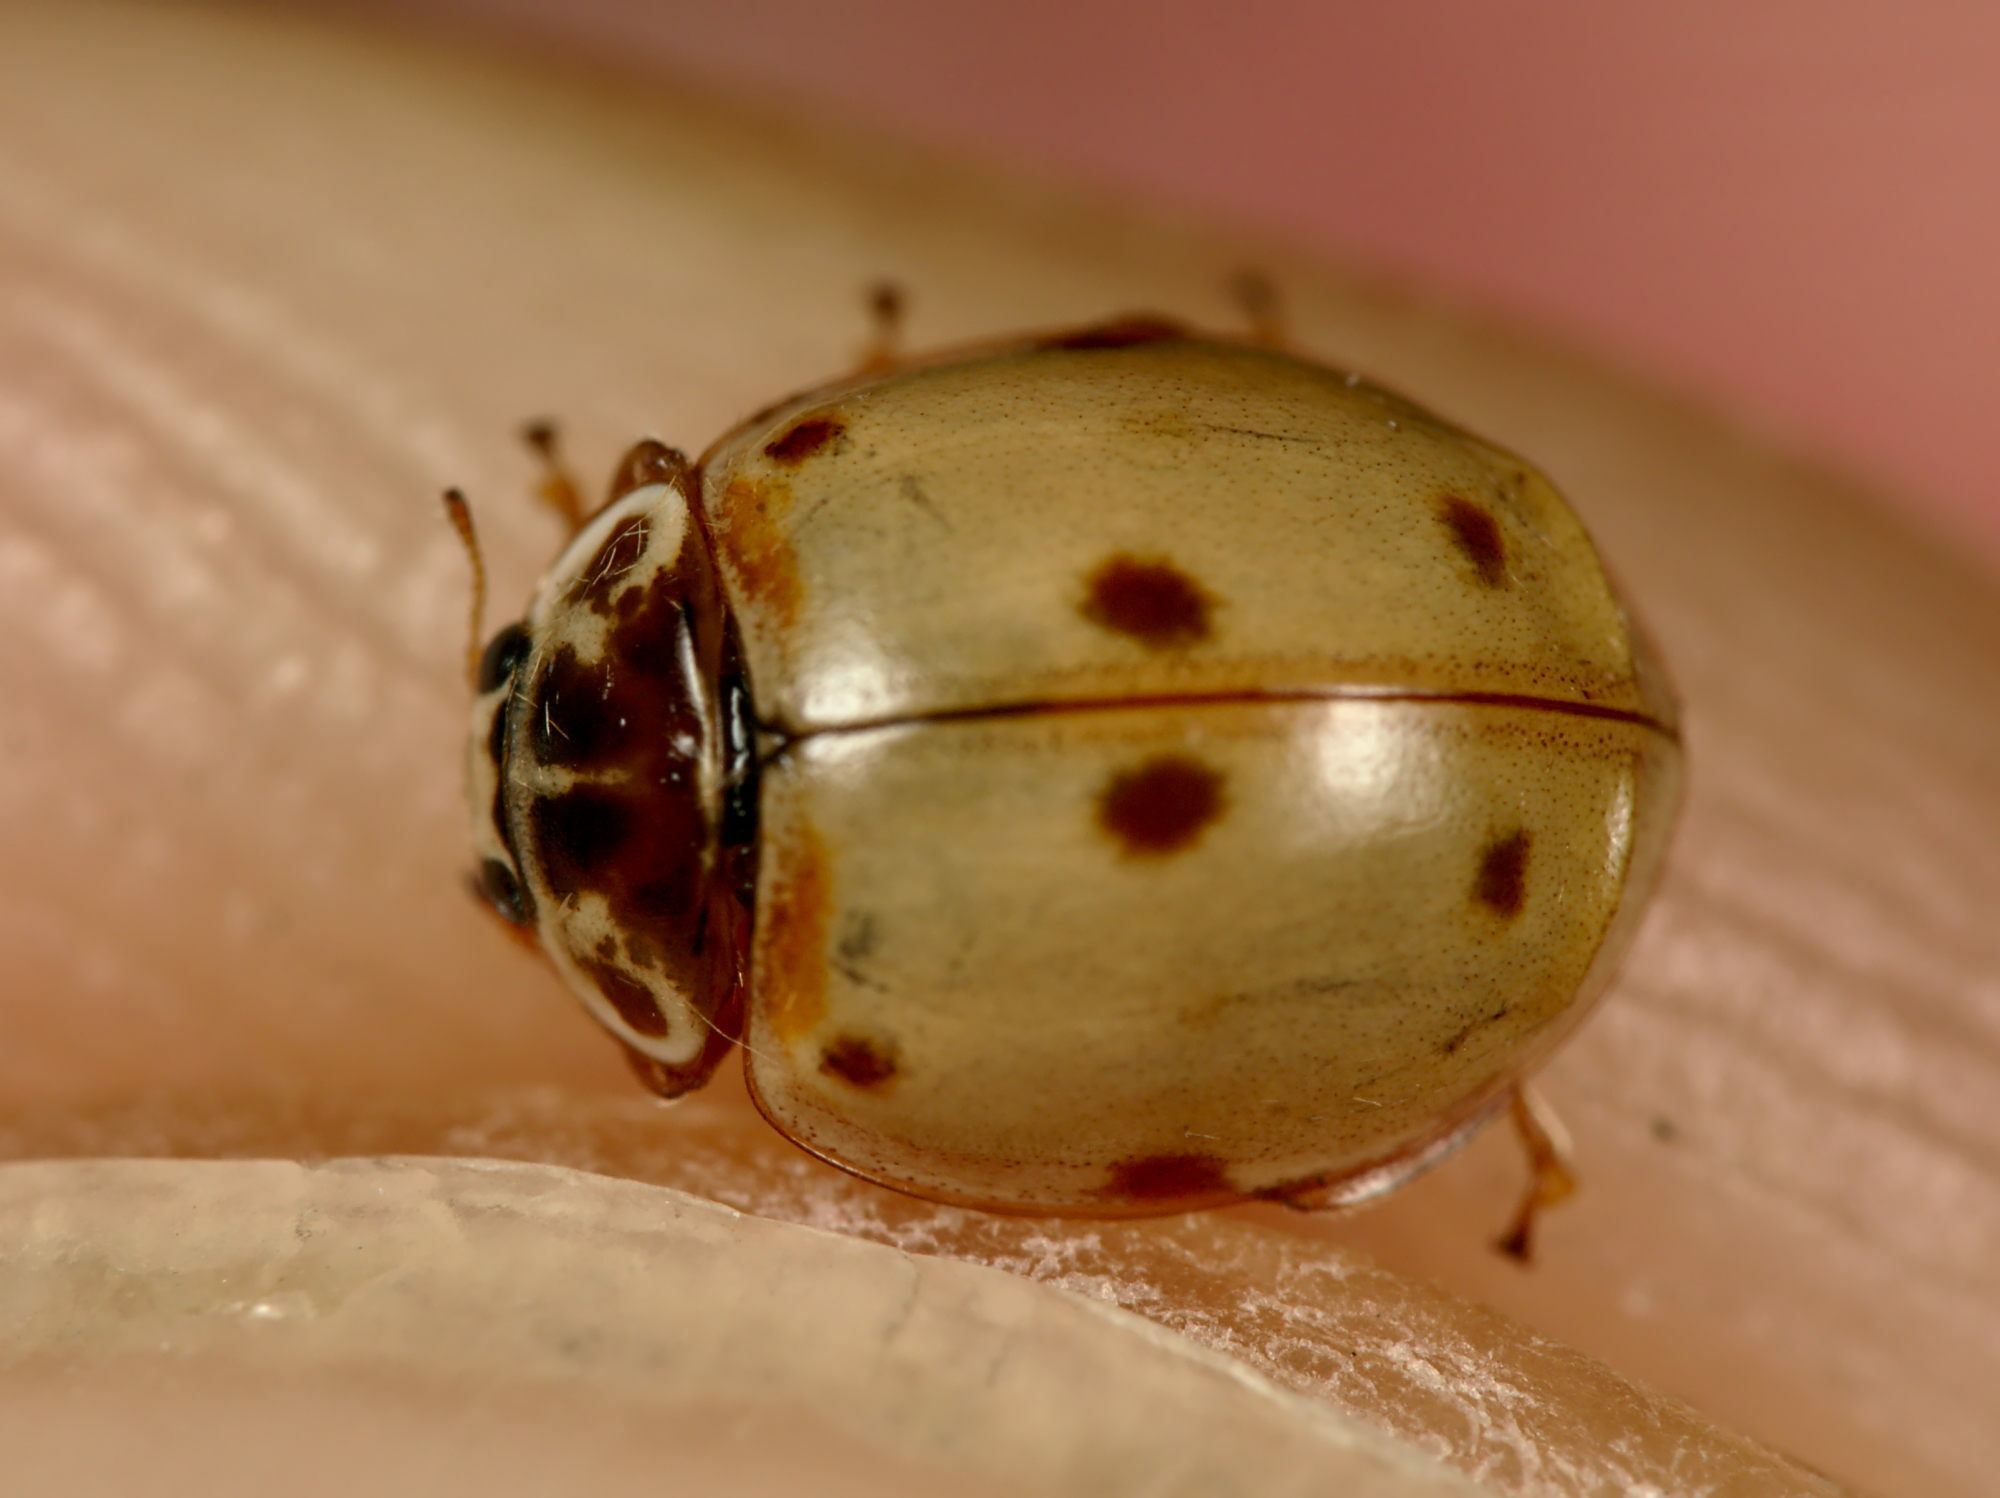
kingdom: Animalia
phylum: Arthropoda
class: Insecta
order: Coleoptera
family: Coccinellidae
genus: Adalia
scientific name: Adalia decempunctata
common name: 10-spot ladybird
